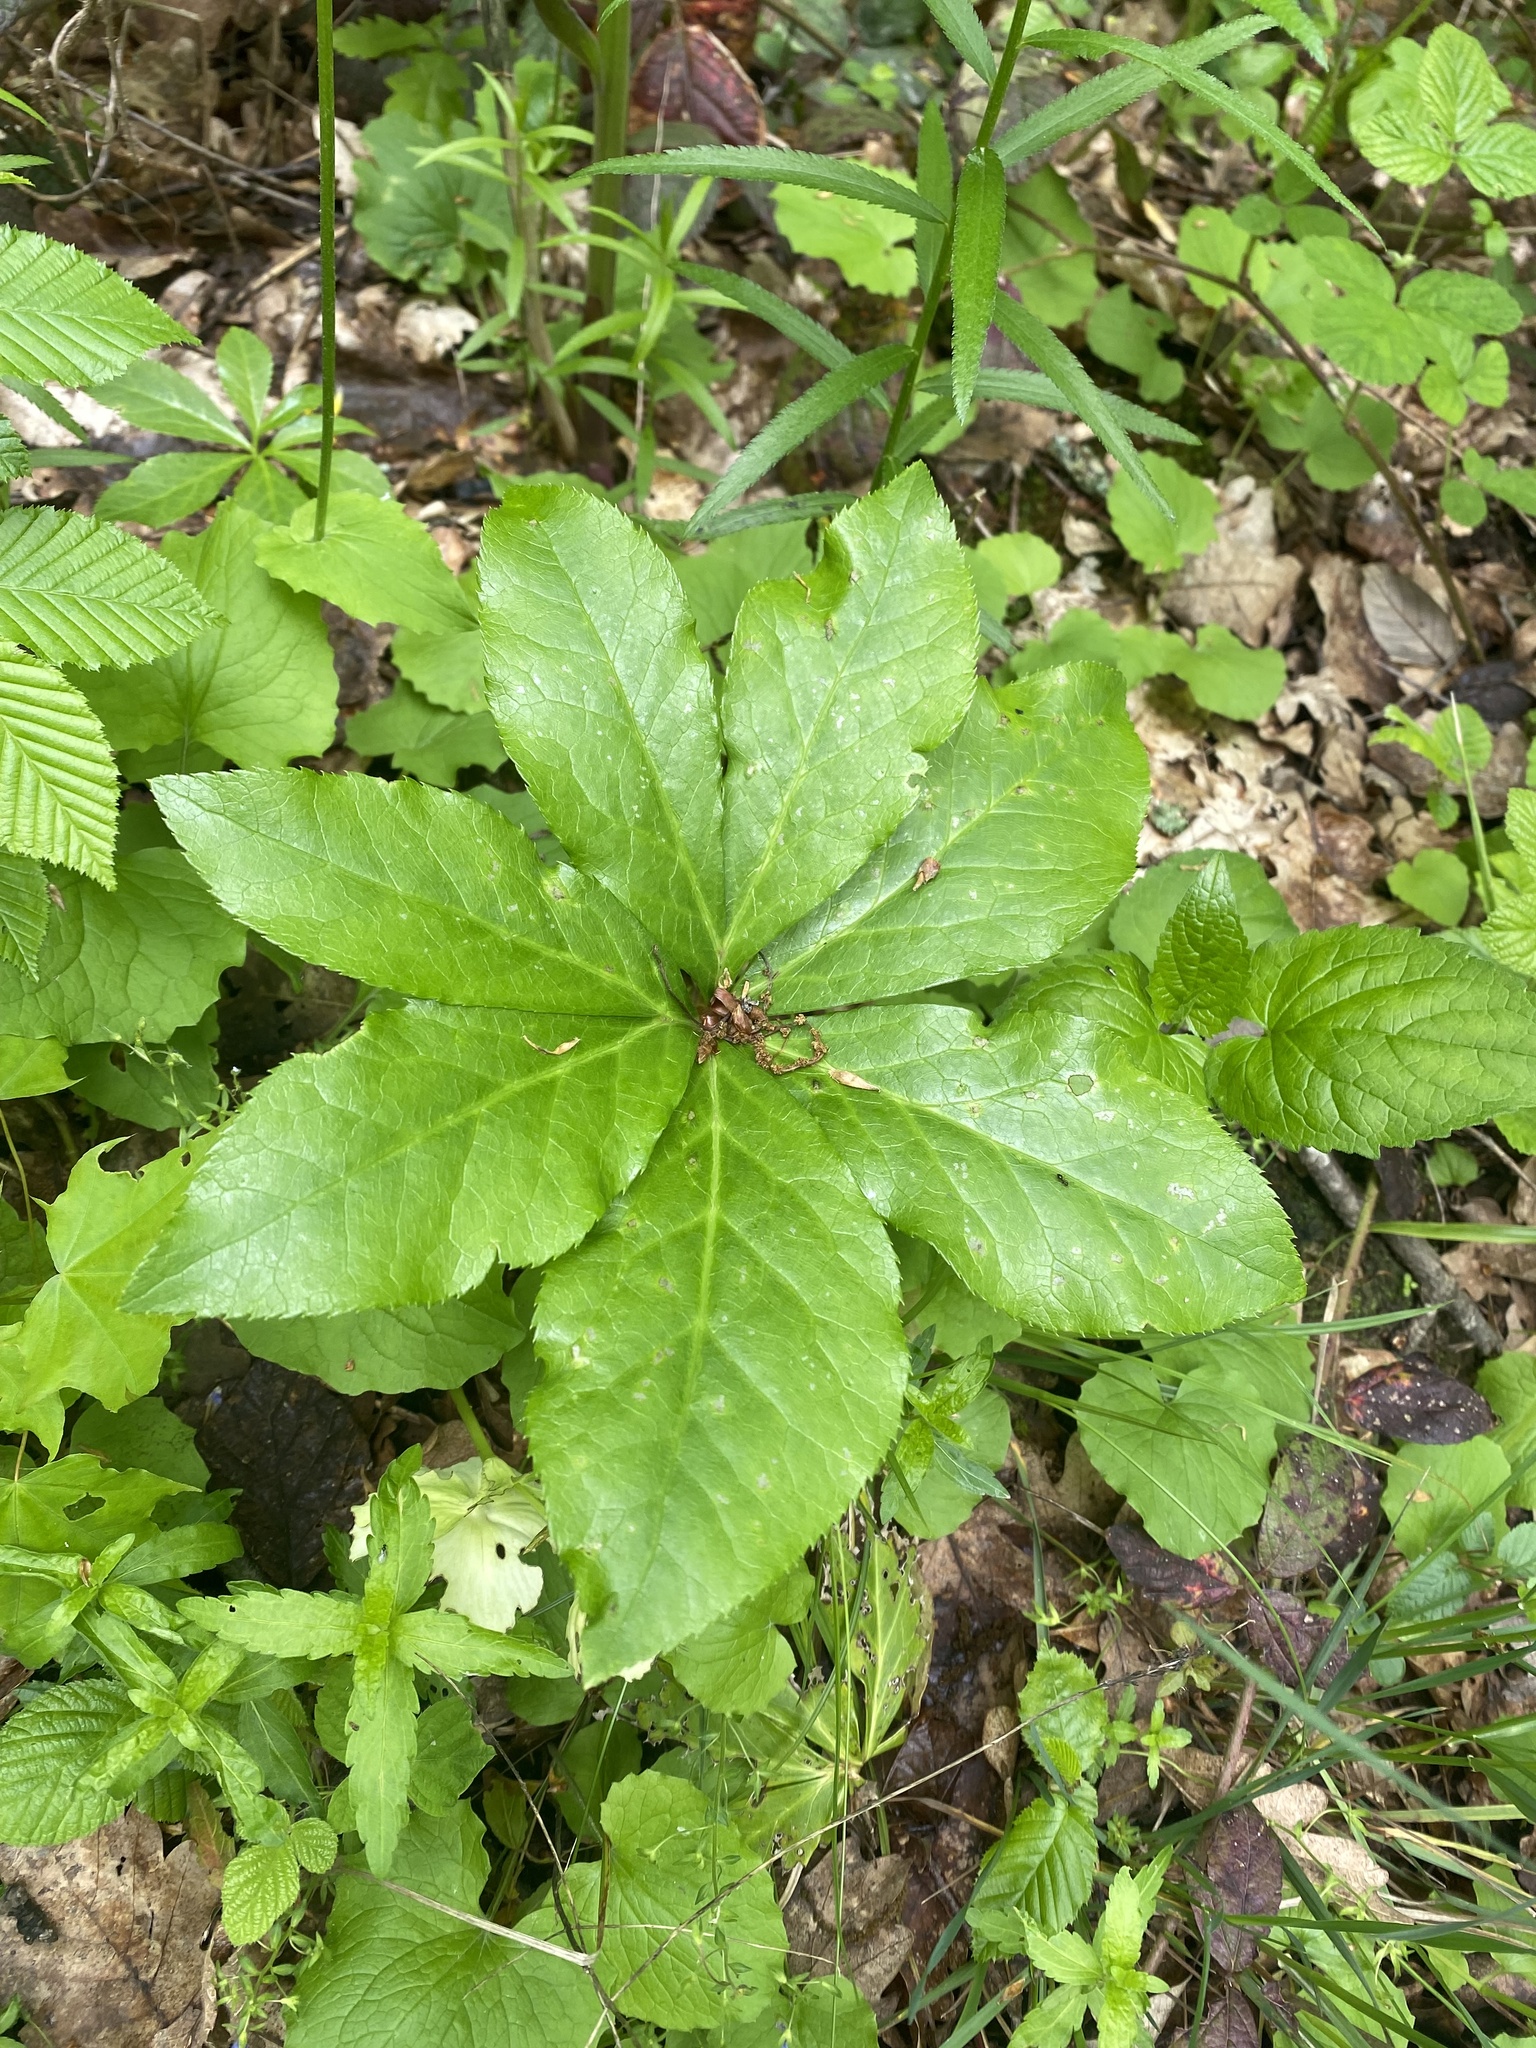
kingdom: Plantae
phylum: Tracheophyta
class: Magnoliopsida
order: Ranunculales
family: Ranunculaceae
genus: Helleborus
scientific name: Helleborus orientalis
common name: Lenten-rose
